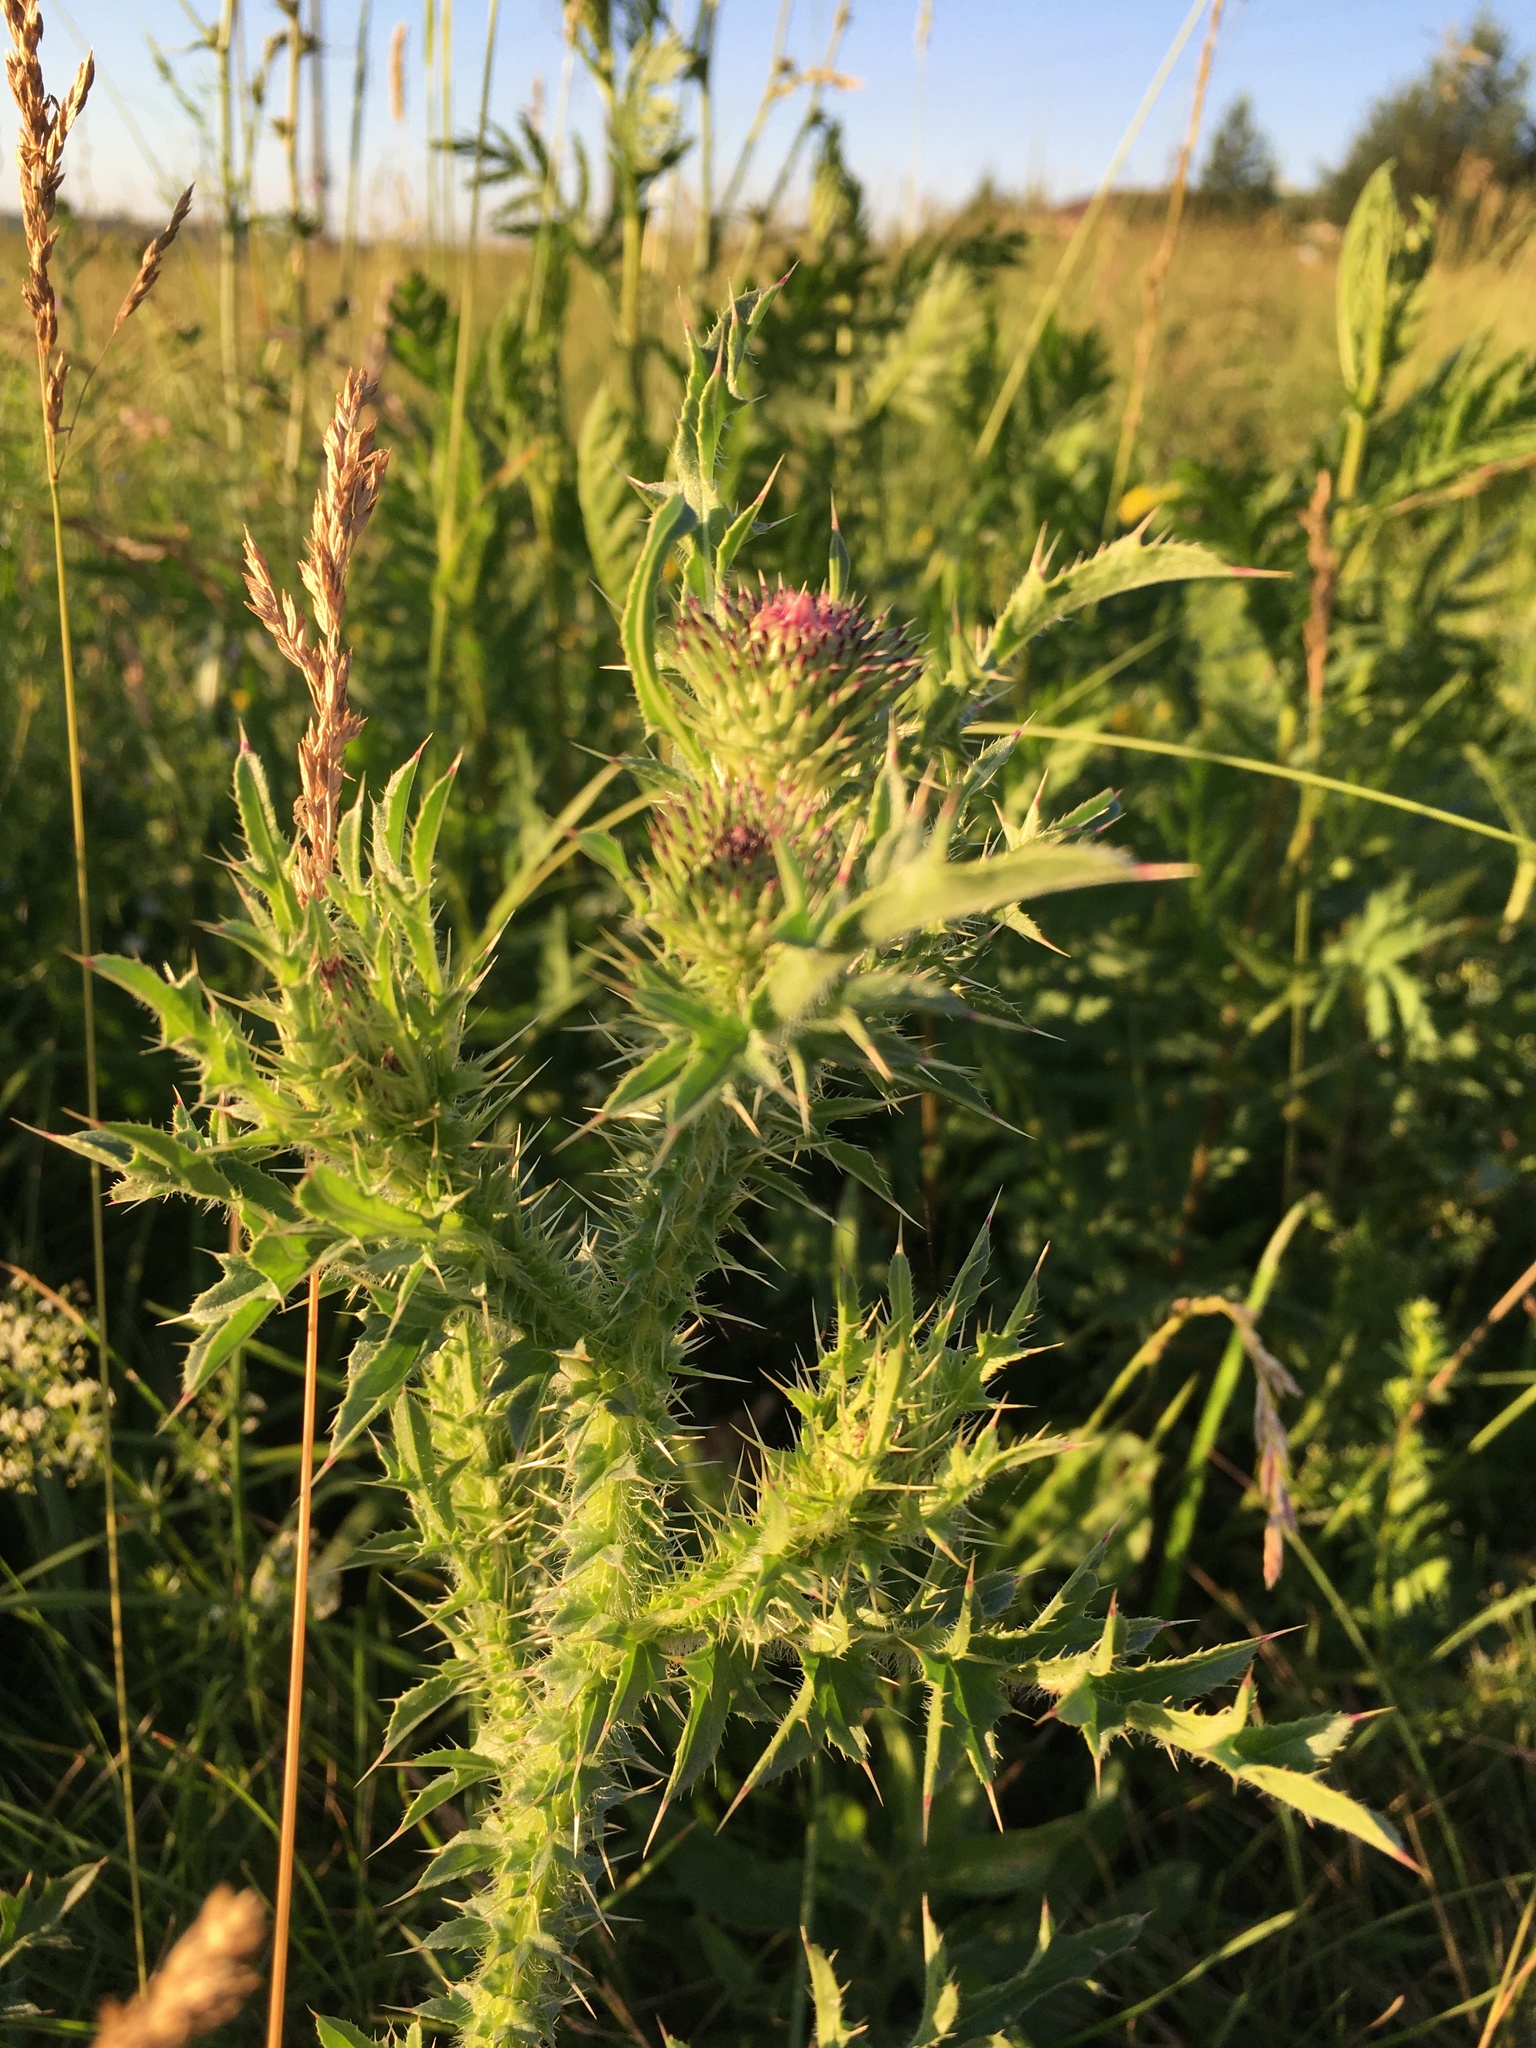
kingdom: Plantae
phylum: Tracheophyta
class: Magnoliopsida
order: Asterales
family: Asteraceae
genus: Carduus
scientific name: Carduus acanthoides
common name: Plumeless thistle
